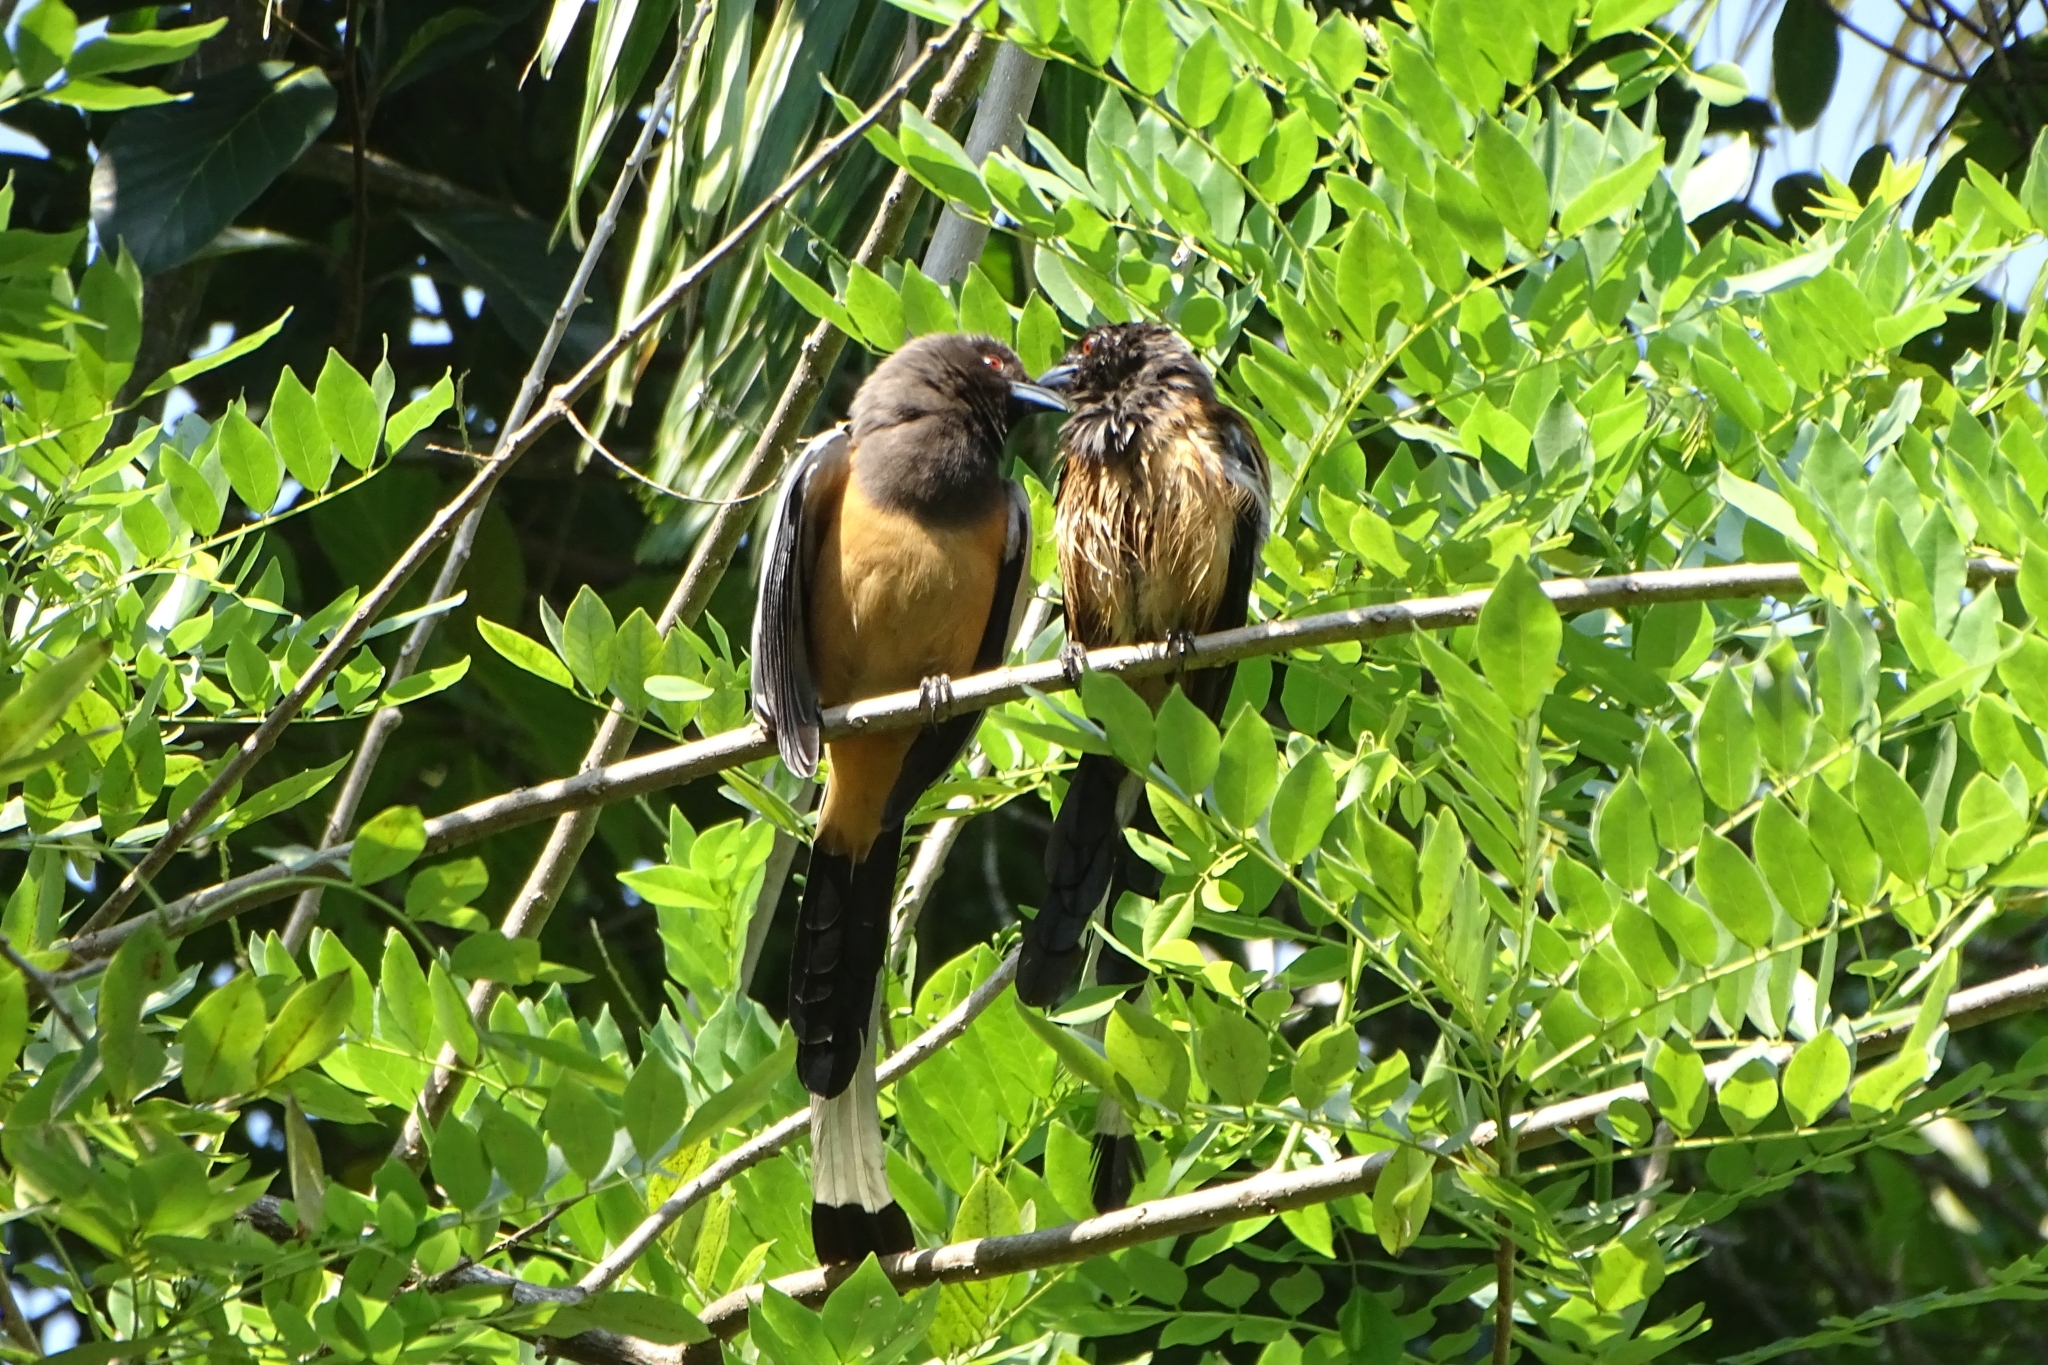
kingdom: Animalia
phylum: Chordata
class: Aves
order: Passeriformes
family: Corvidae
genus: Dendrocitta
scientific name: Dendrocitta vagabunda
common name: Rufous treepie
